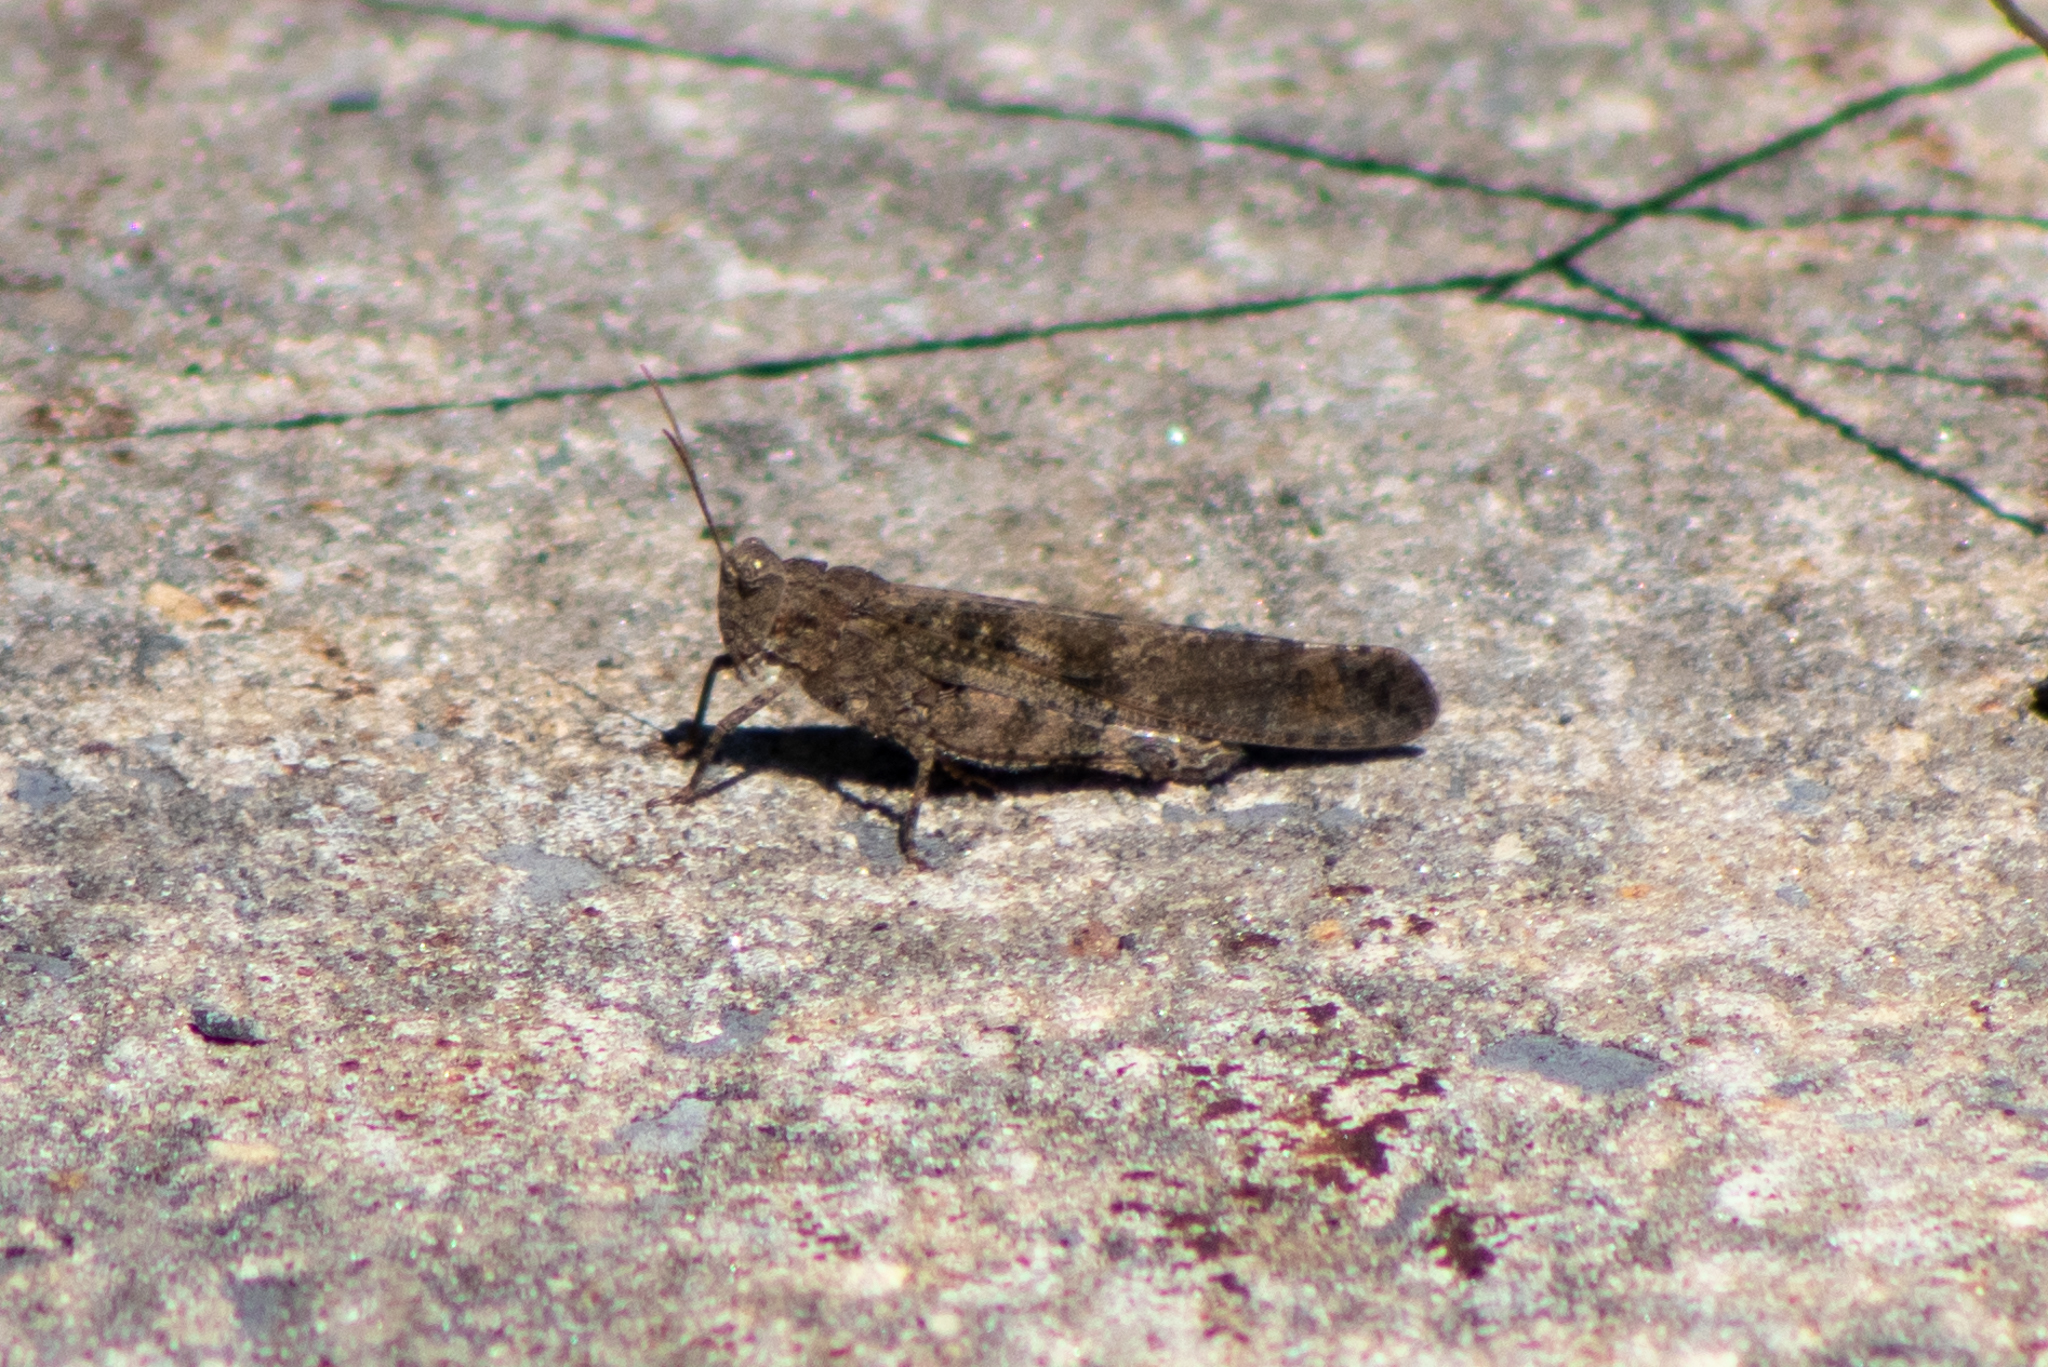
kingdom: Animalia
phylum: Arthropoda
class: Insecta
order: Orthoptera
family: Acrididae
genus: Dissosteira
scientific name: Dissosteira carolina
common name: Carolina grasshopper
